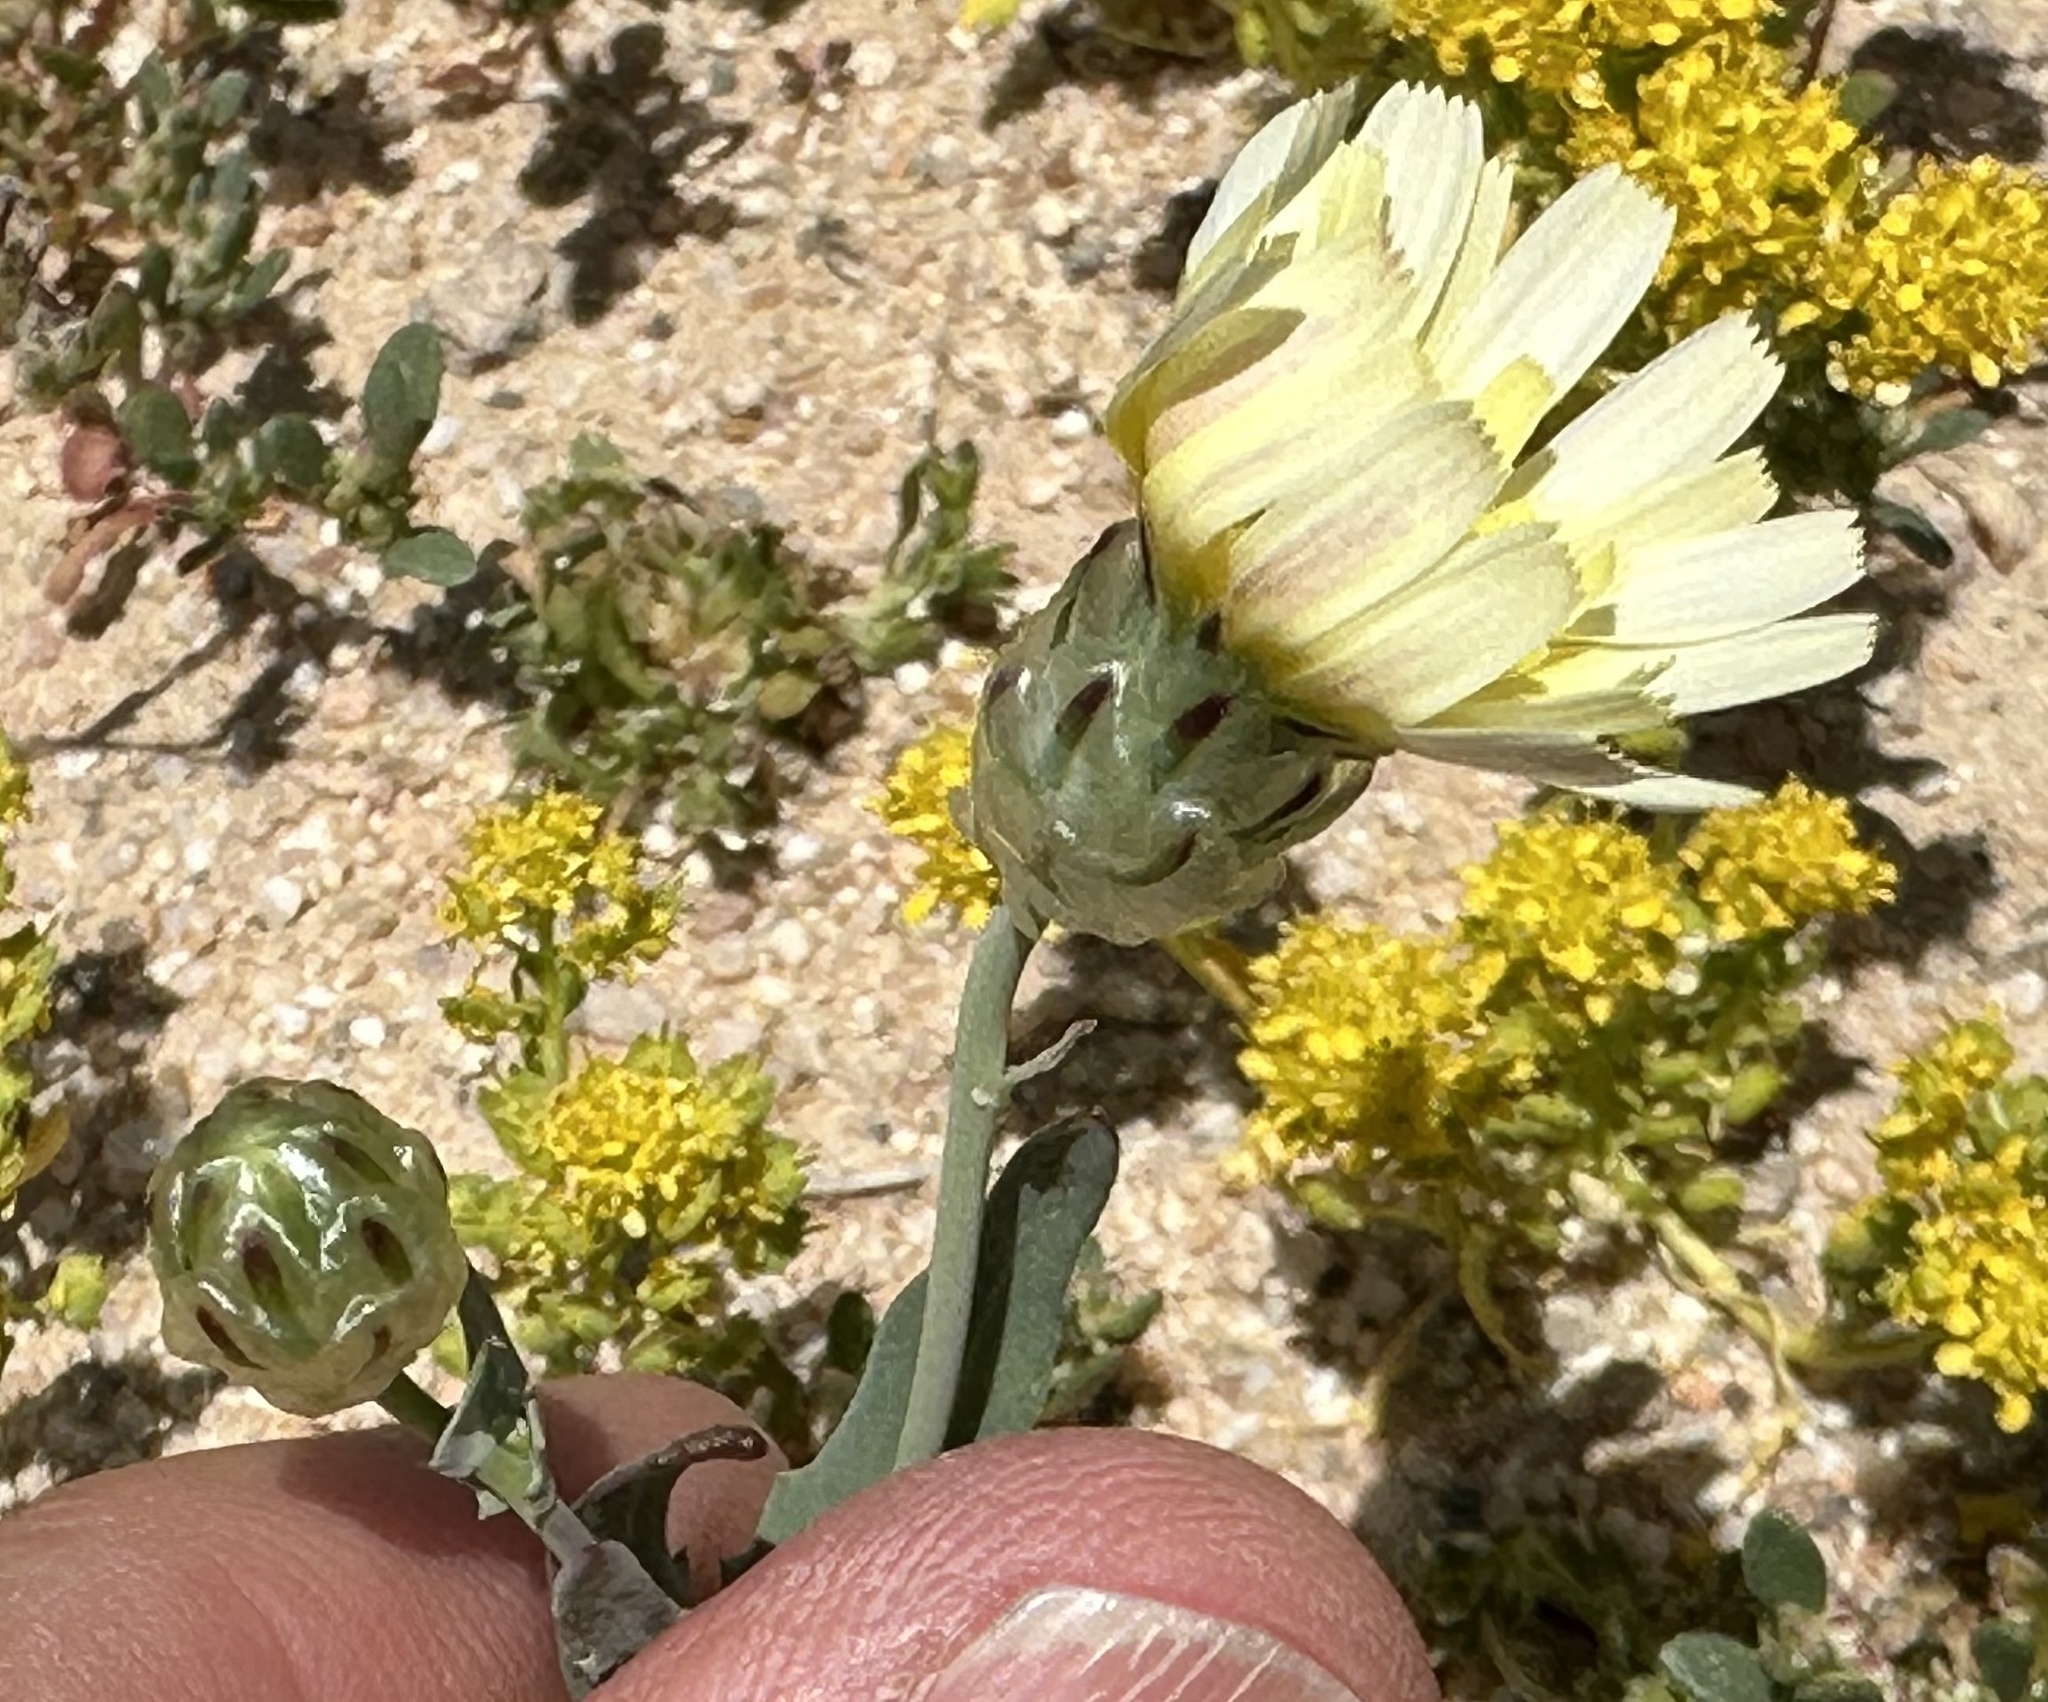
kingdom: Plantae
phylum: Tracheophyta
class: Magnoliopsida
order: Asterales
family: Asteraceae
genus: Malacothrix
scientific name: Malacothrix coulteri
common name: Snake's-head
